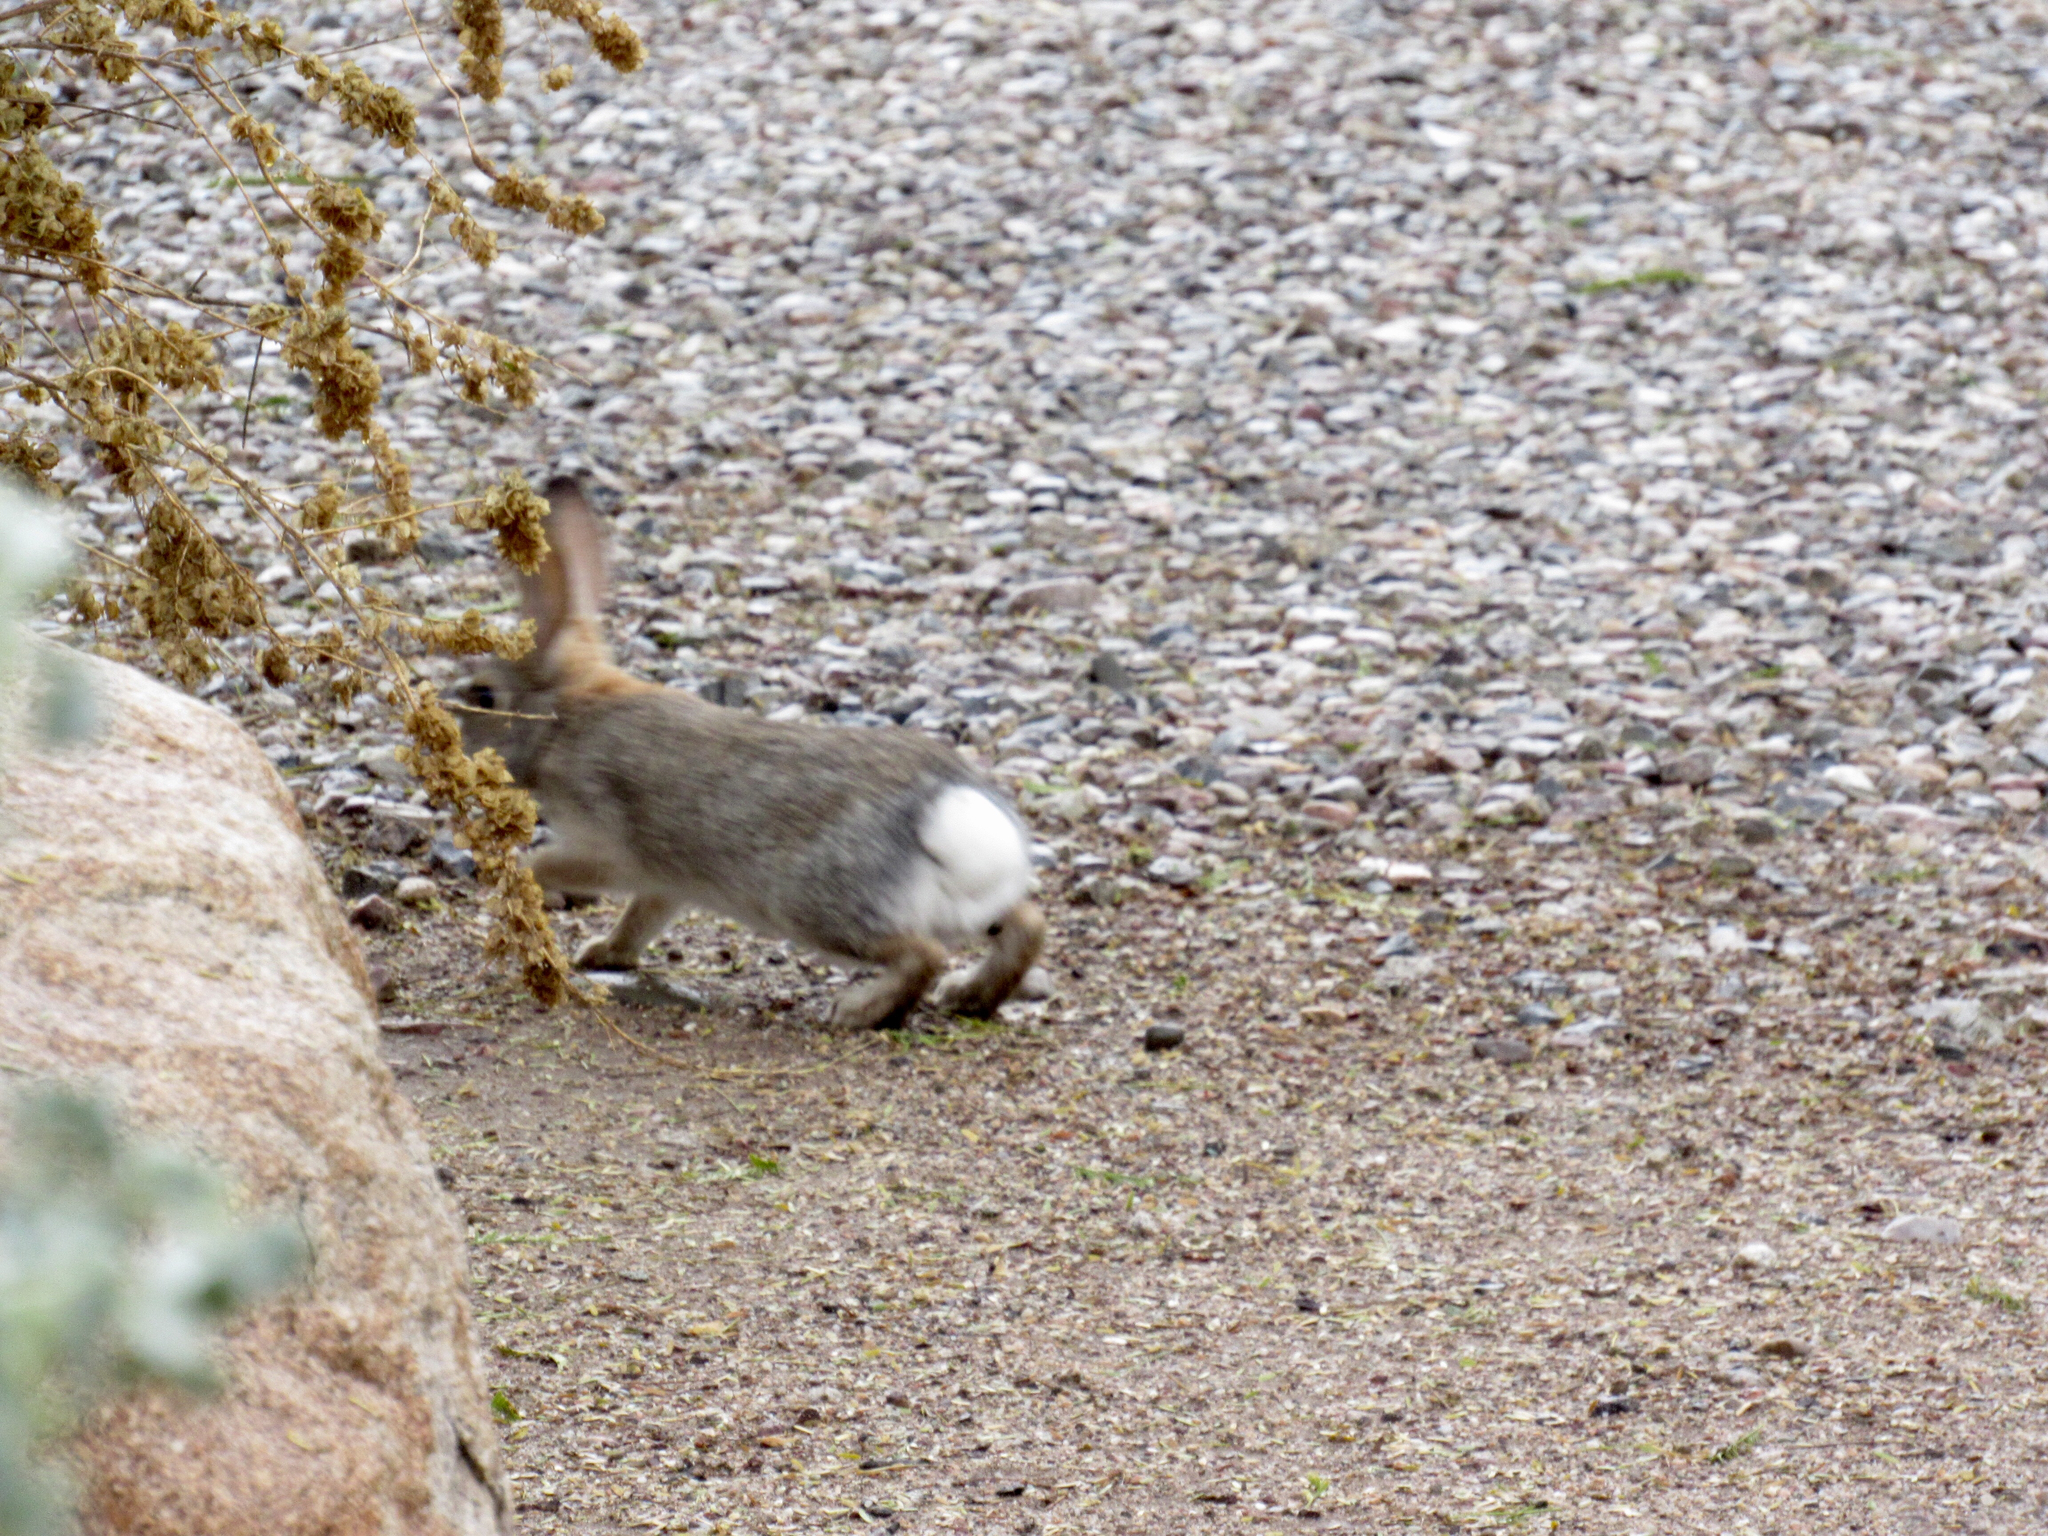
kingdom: Animalia
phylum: Chordata
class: Mammalia
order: Lagomorpha
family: Leporidae
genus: Sylvilagus
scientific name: Sylvilagus audubonii
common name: Desert cottontail
